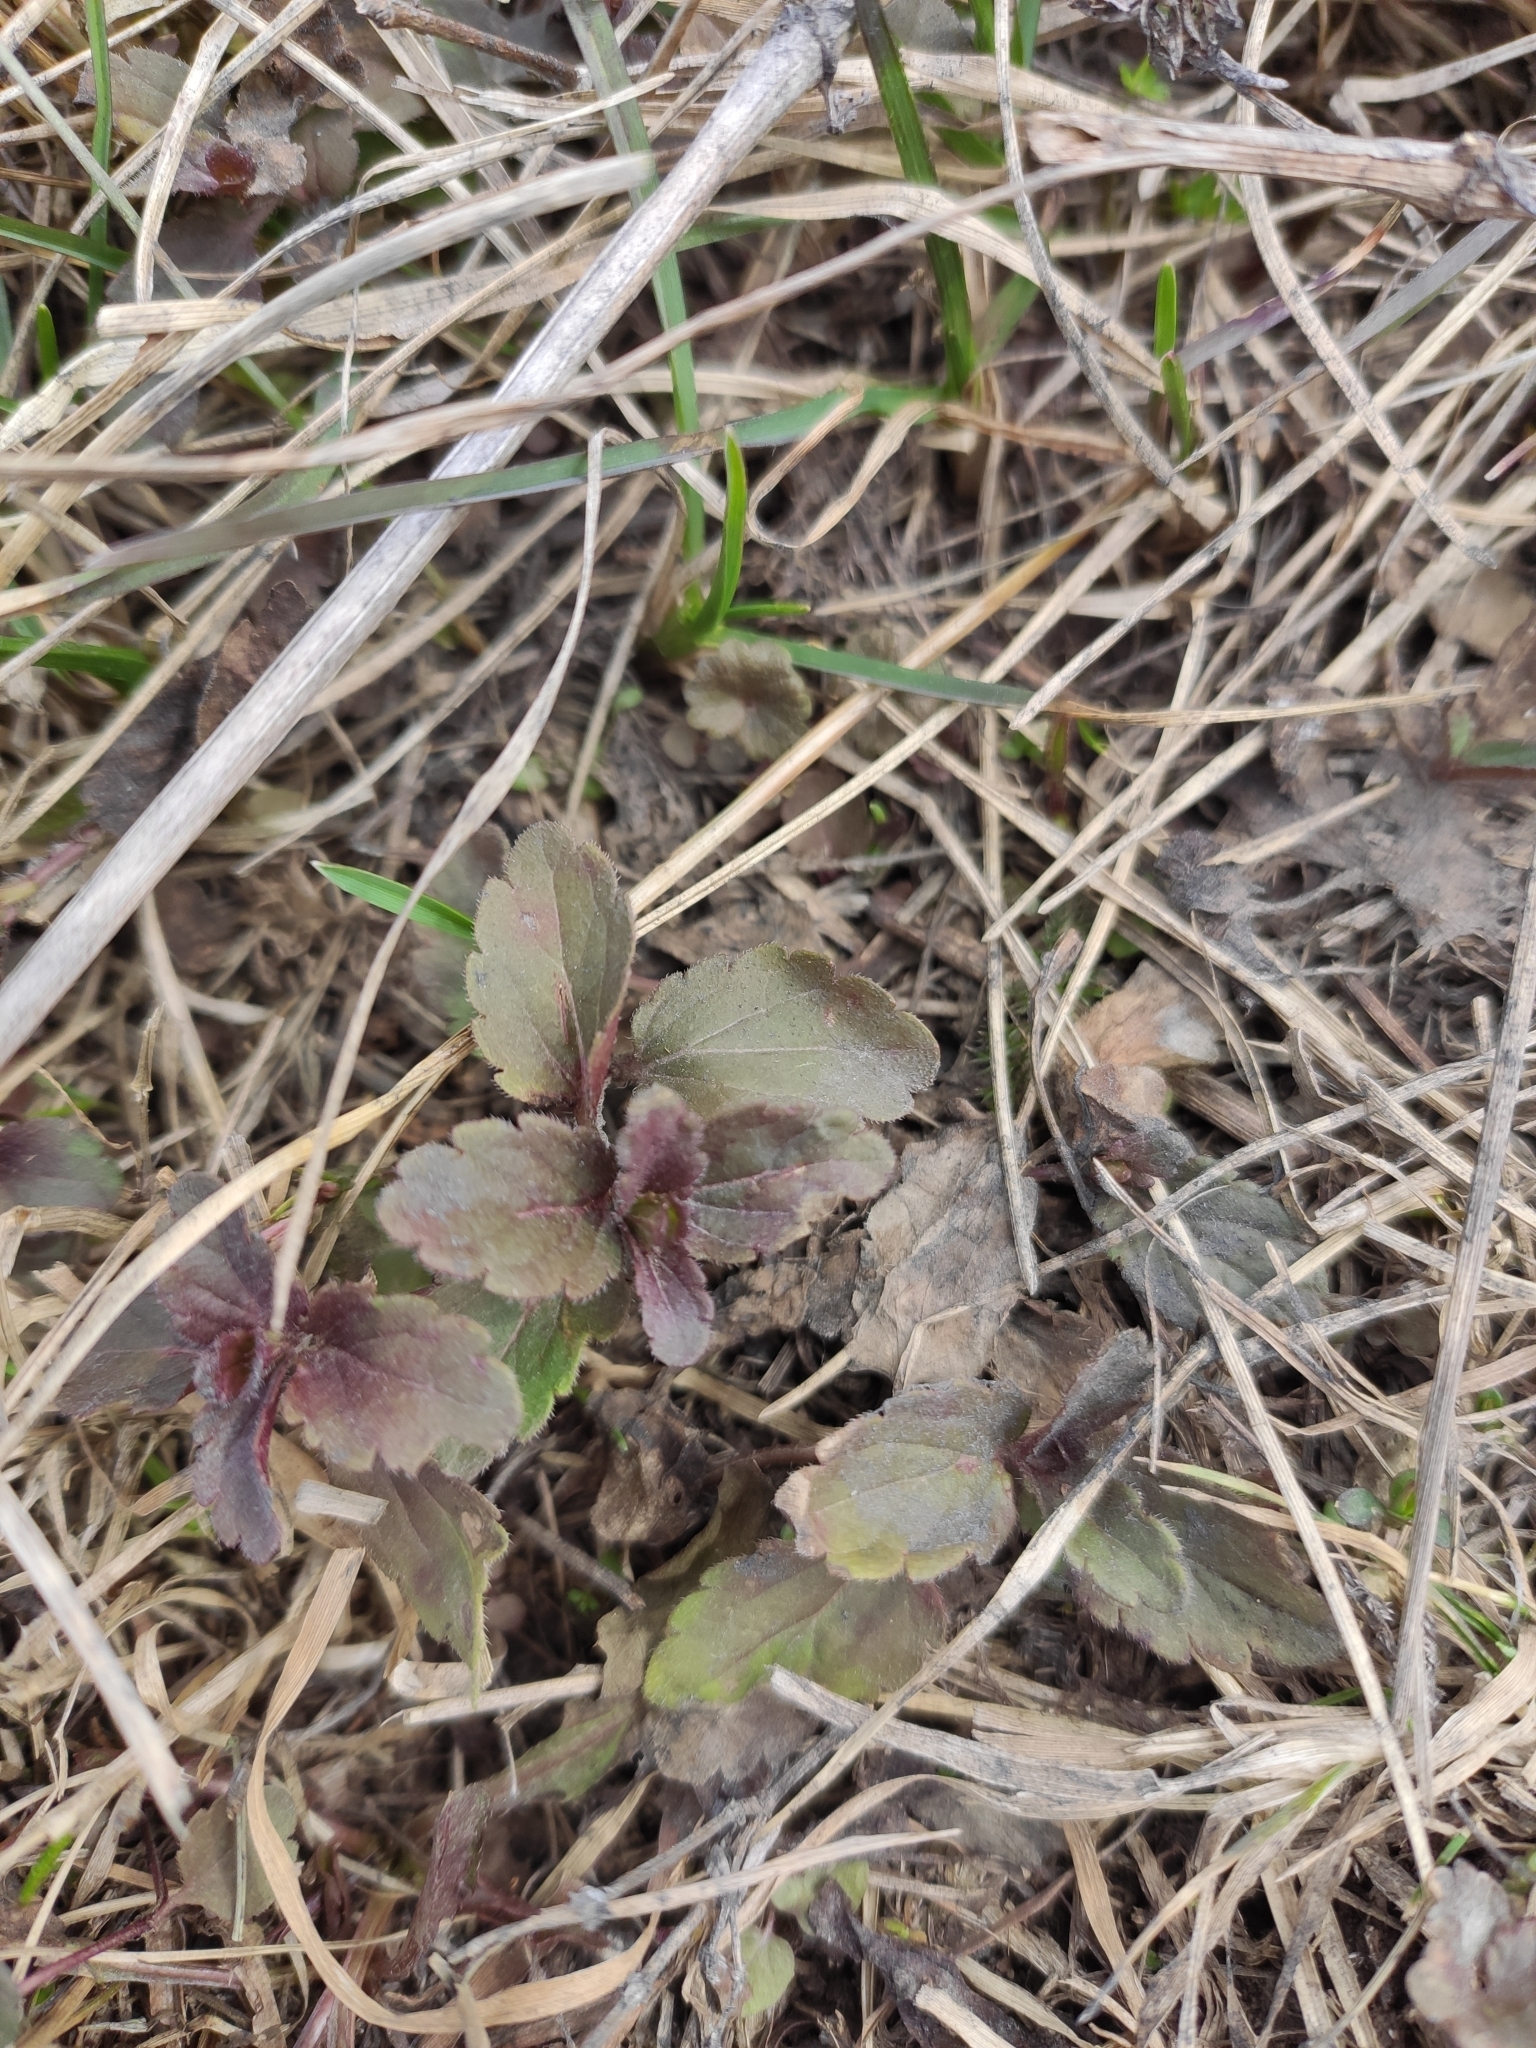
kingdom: Plantae
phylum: Tracheophyta
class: Magnoliopsida
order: Lamiales
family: Plantaginaceae
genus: Veronica
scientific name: Veronica chamaedrys
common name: Germander speedwell
